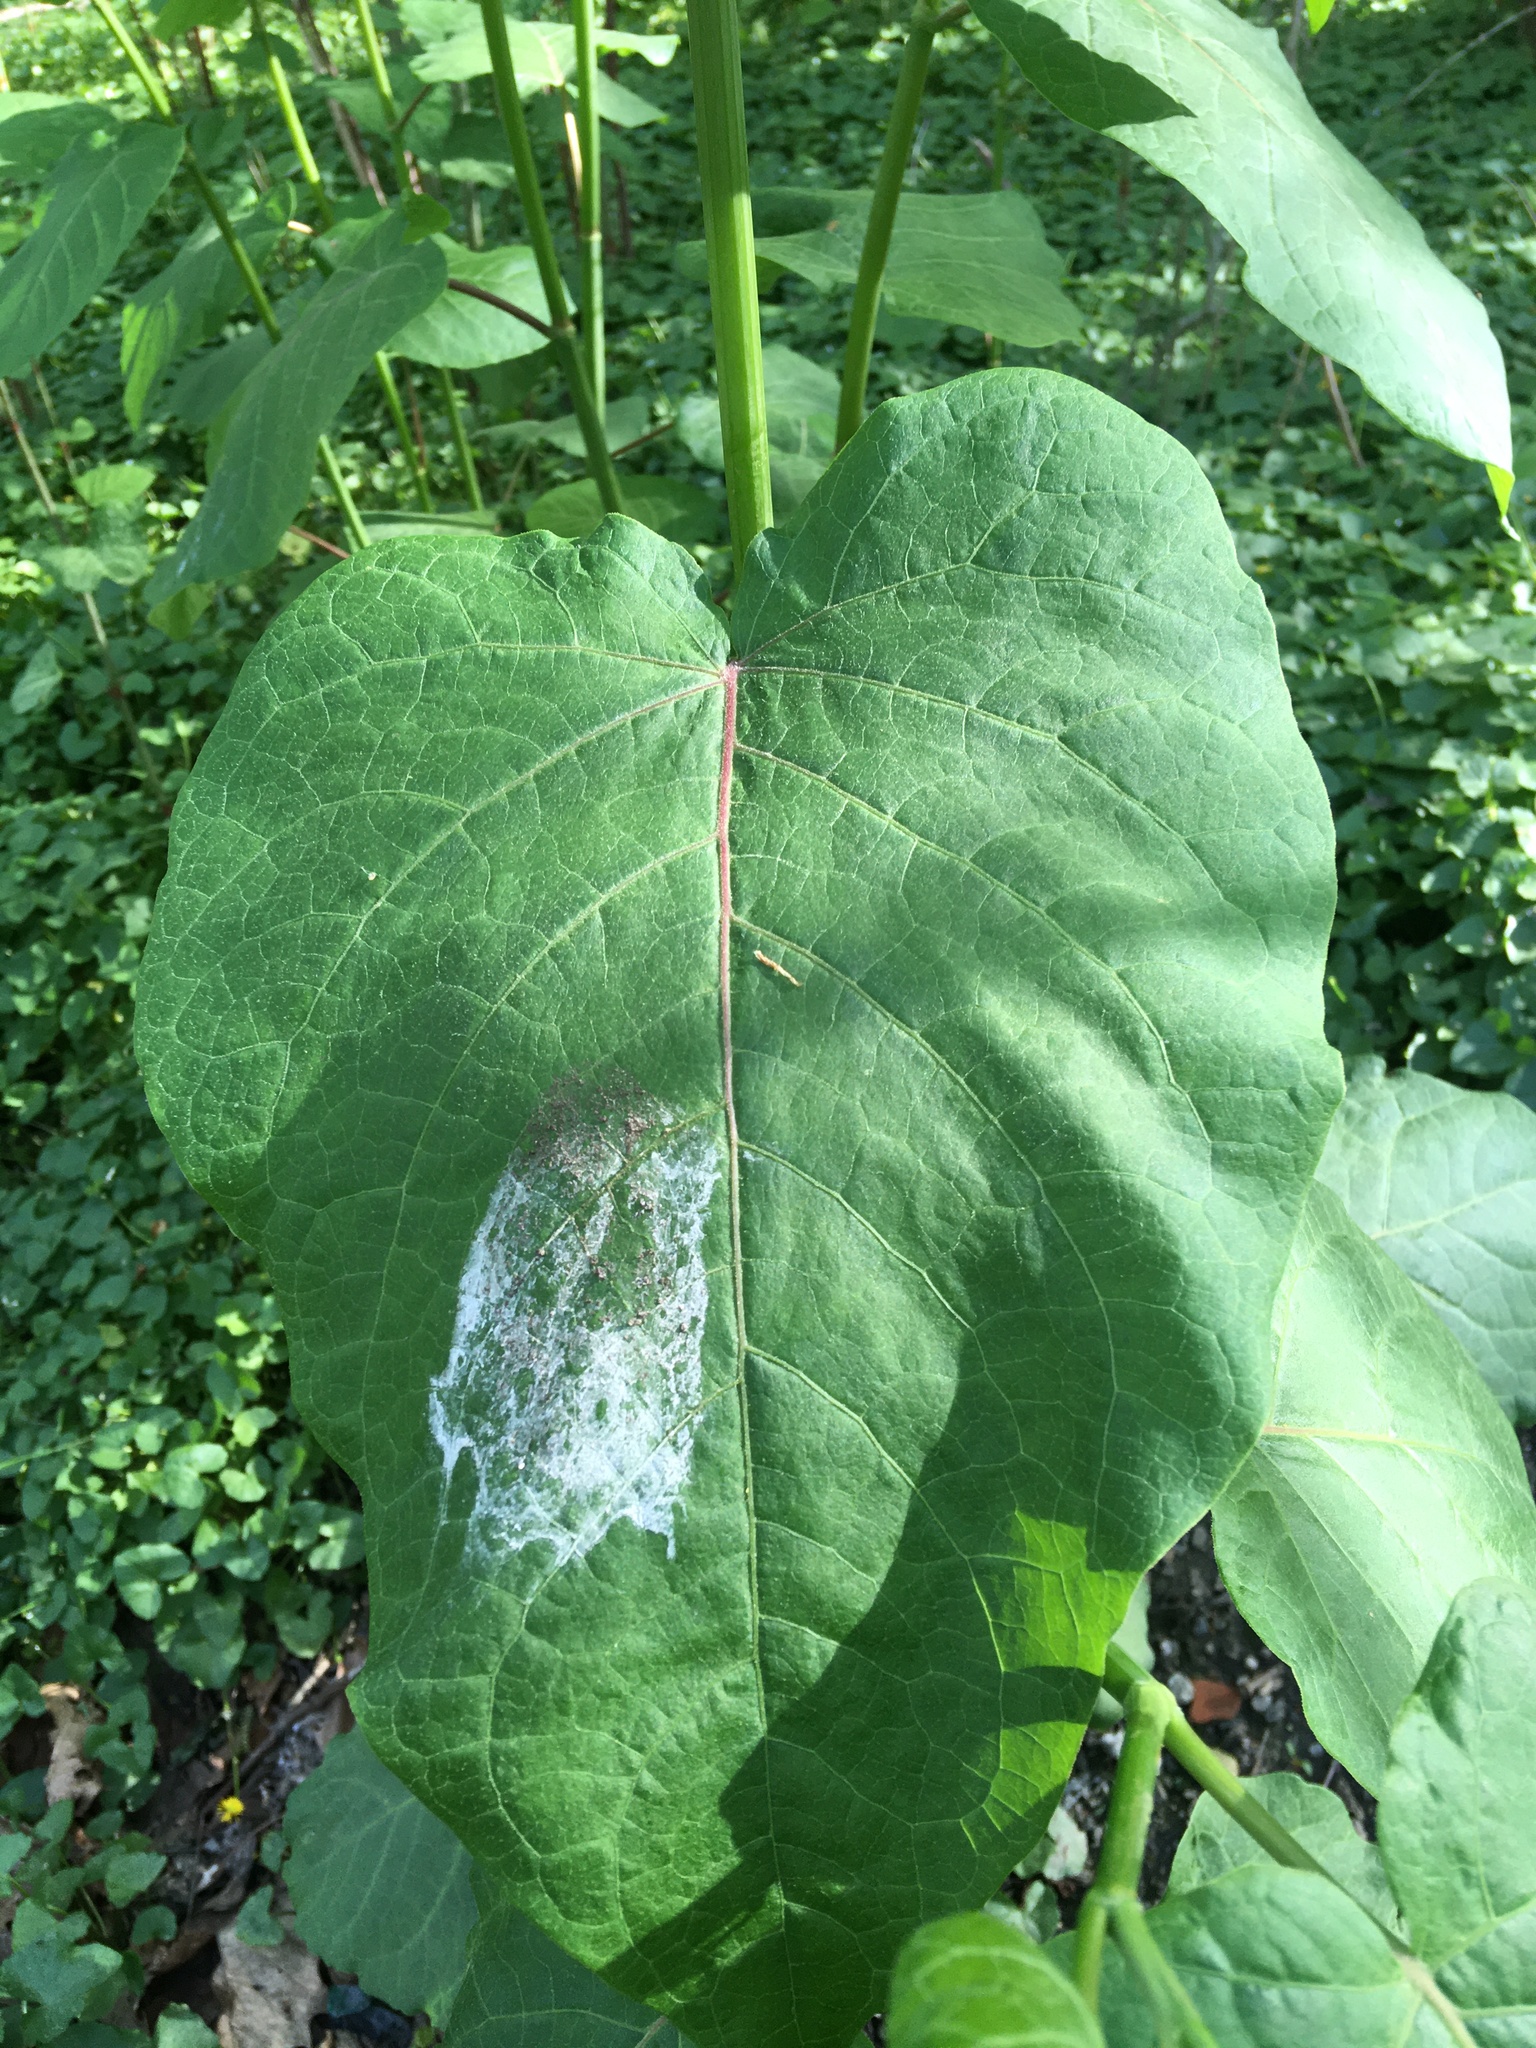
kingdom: Plantae
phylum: Tracheophyta
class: Magnoliopsida
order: Caryophyllales
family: Polygonaceae
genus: Reynoutria
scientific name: Reynoutria sachalinensis
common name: Giant knotweed
